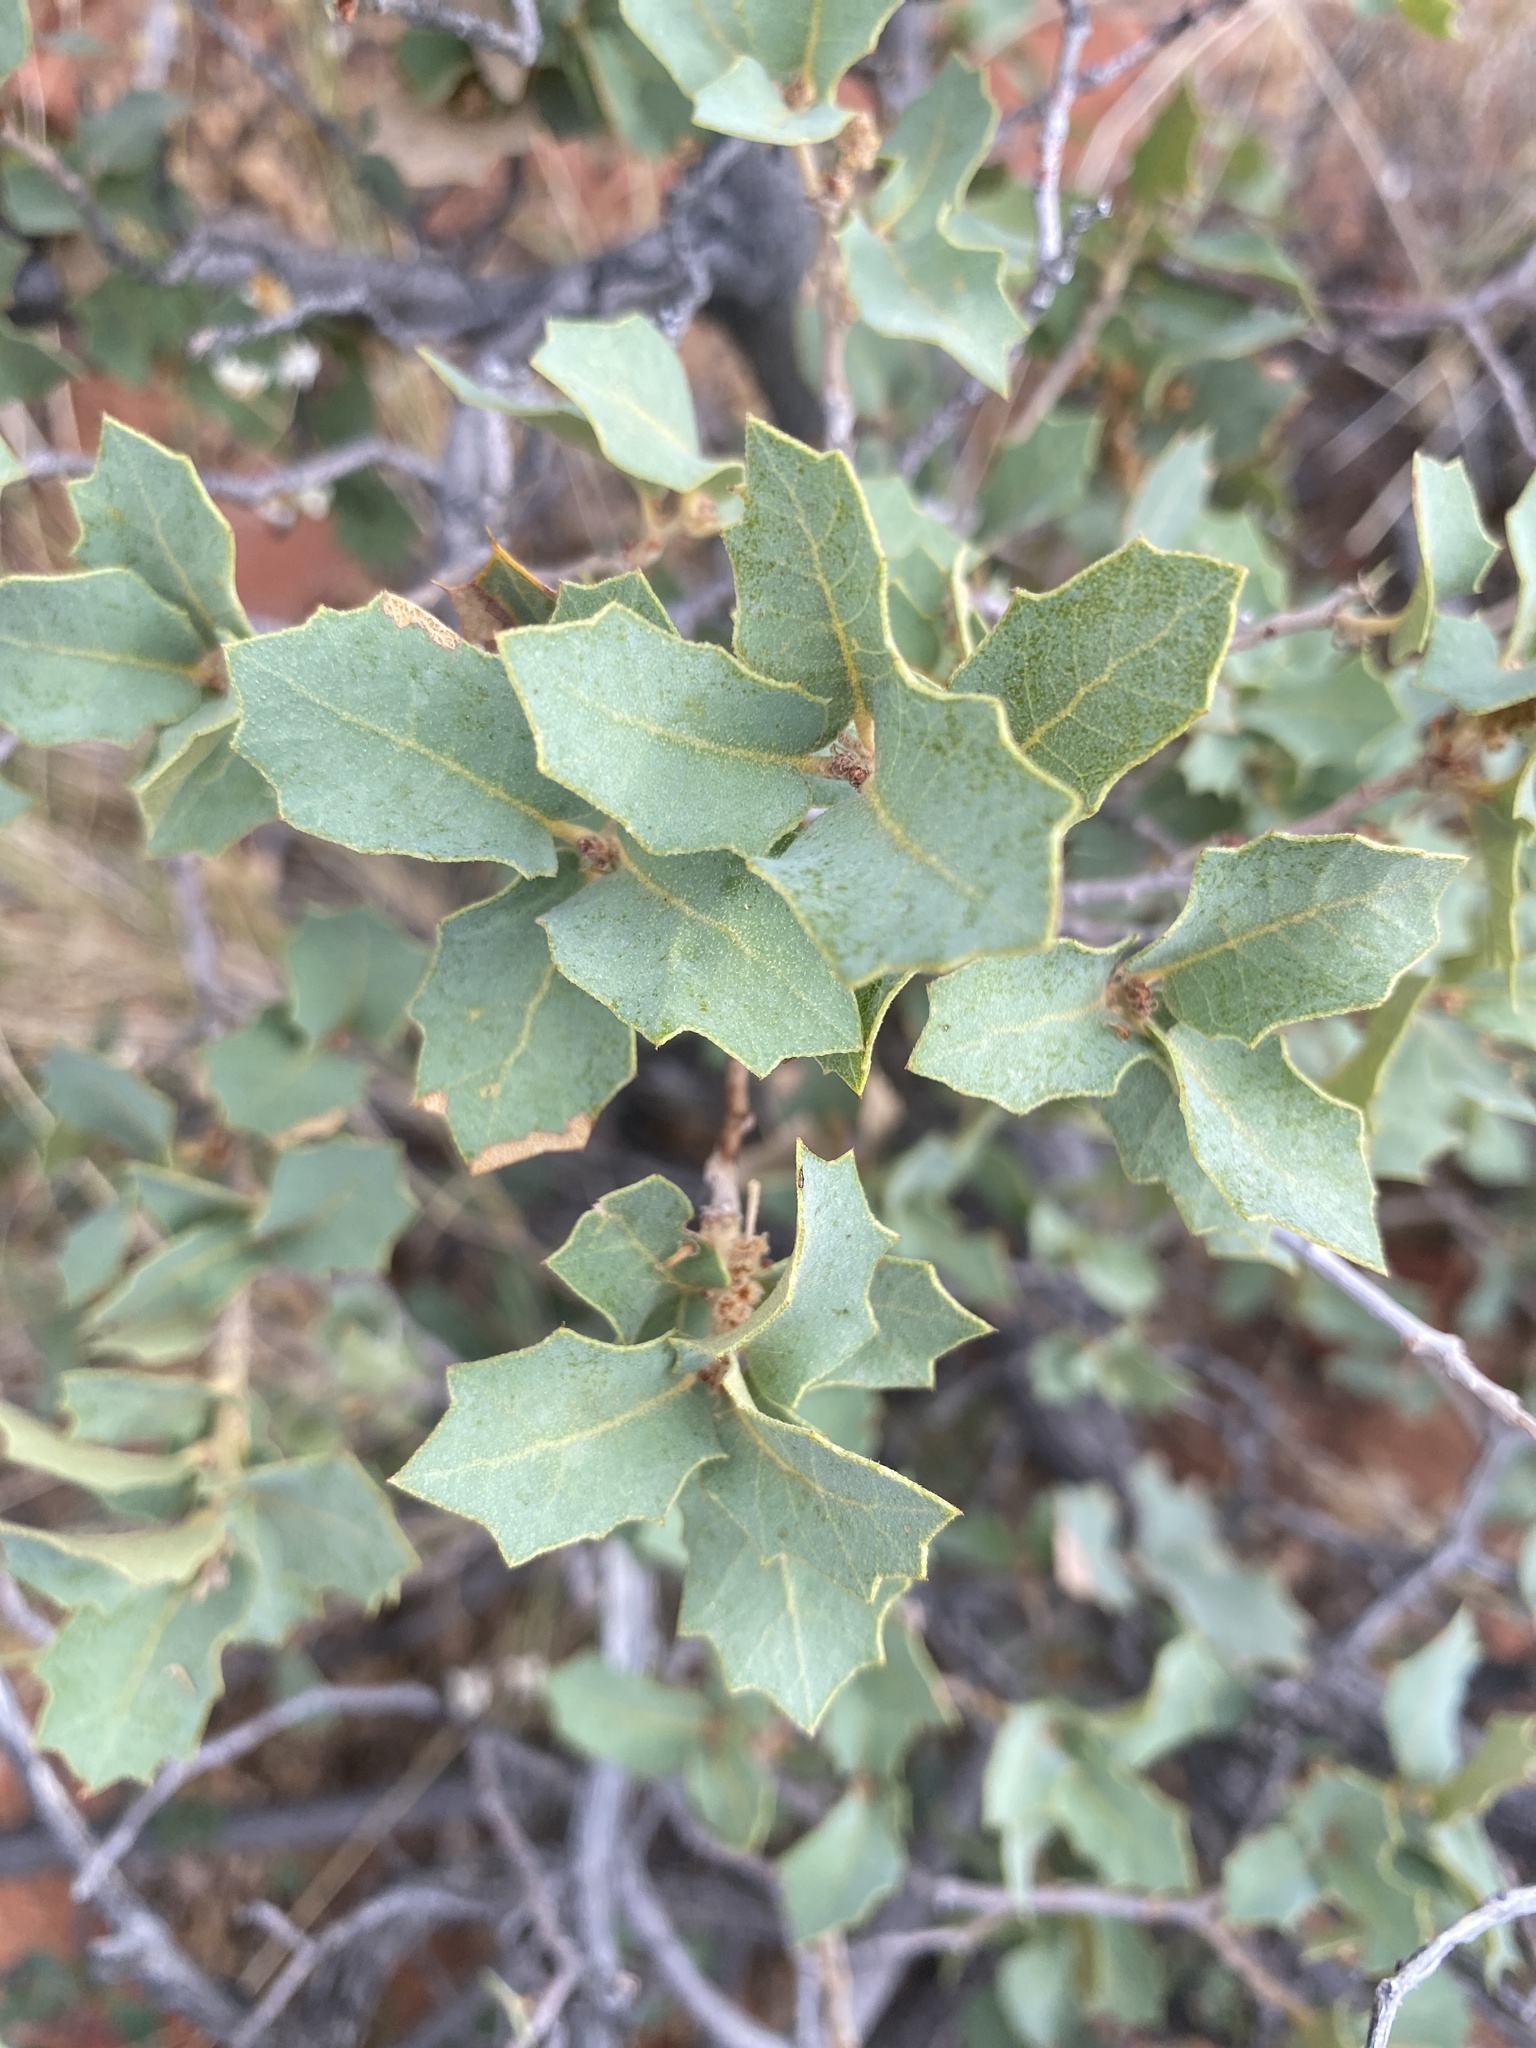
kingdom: Plantae
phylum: Tracheophyta
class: Magnoliopsida
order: Fagales
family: Fagaceae
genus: Quercus
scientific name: Quercus turbinella
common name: Sonoran scrub oak
